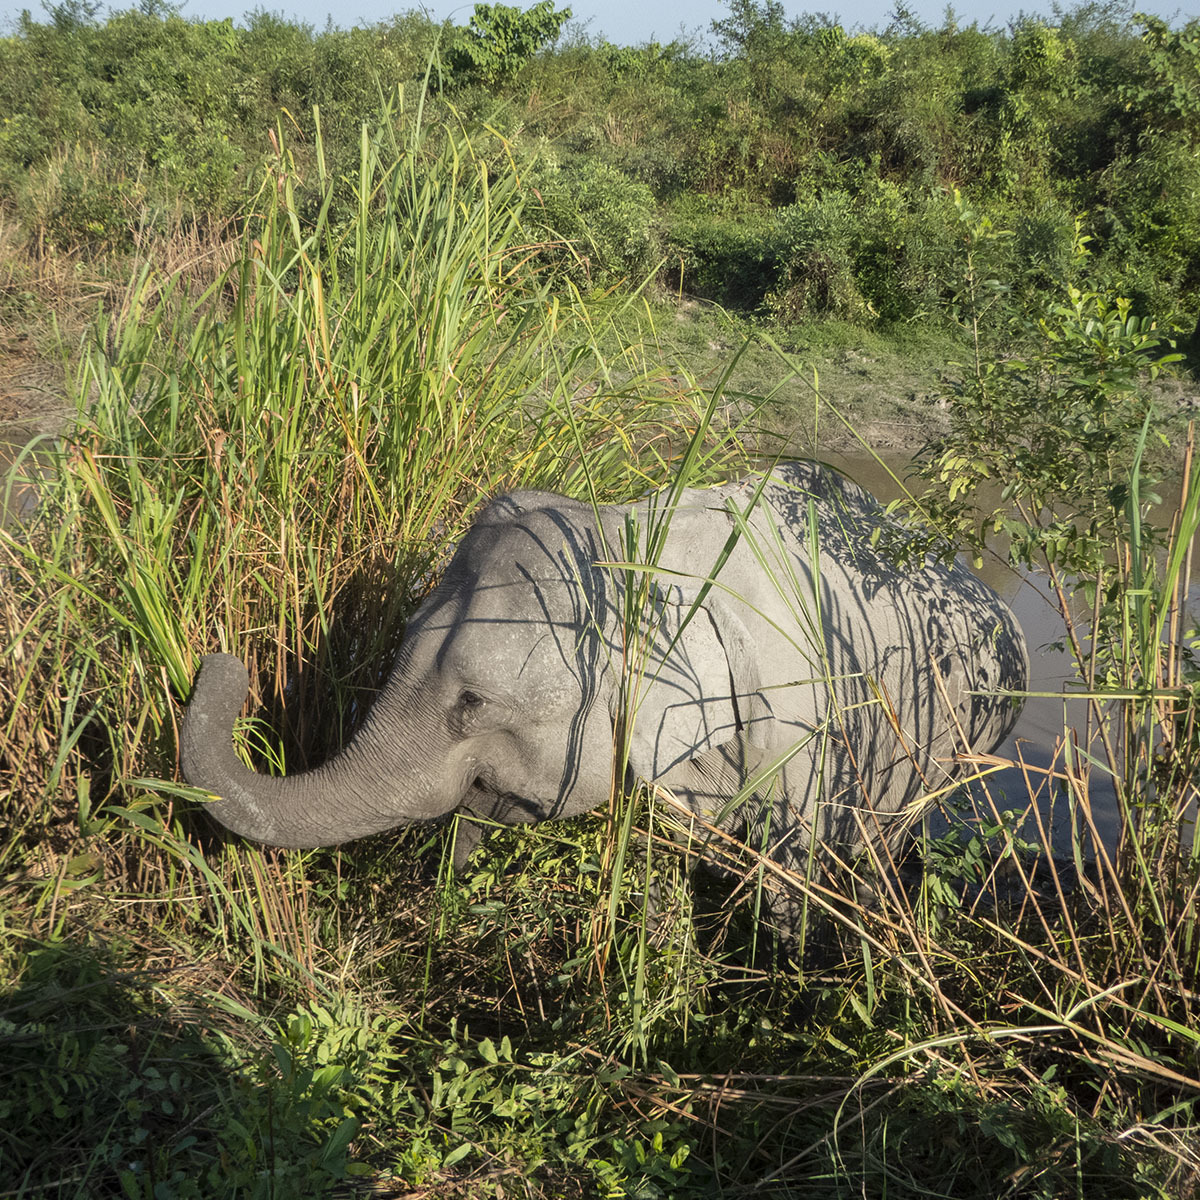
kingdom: Animalia
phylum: Chordata
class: Mammalia
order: Proboscidea
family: Elephantidae
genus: Elephas
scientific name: Elephas maximus
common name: Asian elephant
